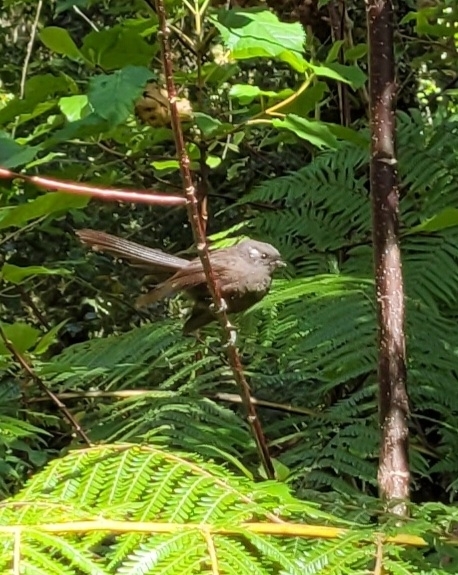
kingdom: Animalia
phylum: Chordata
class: Aves
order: Passeriformes
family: Rhipiduridae
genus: Rhipidura
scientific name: Rhipidura fuliginosa
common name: New zealand fantail
